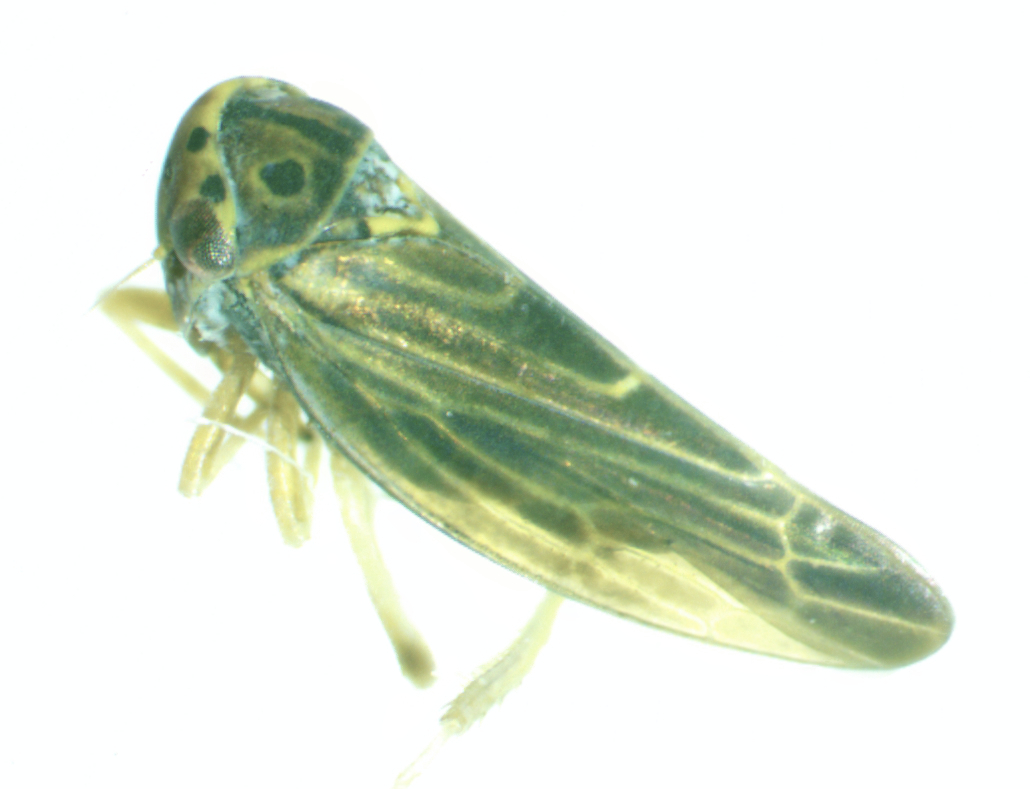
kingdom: Animalia
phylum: Arthropoda
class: Insecta
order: Hemiptera
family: Cicadellidae
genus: Agalliopsis
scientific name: Agalliopsis novella
